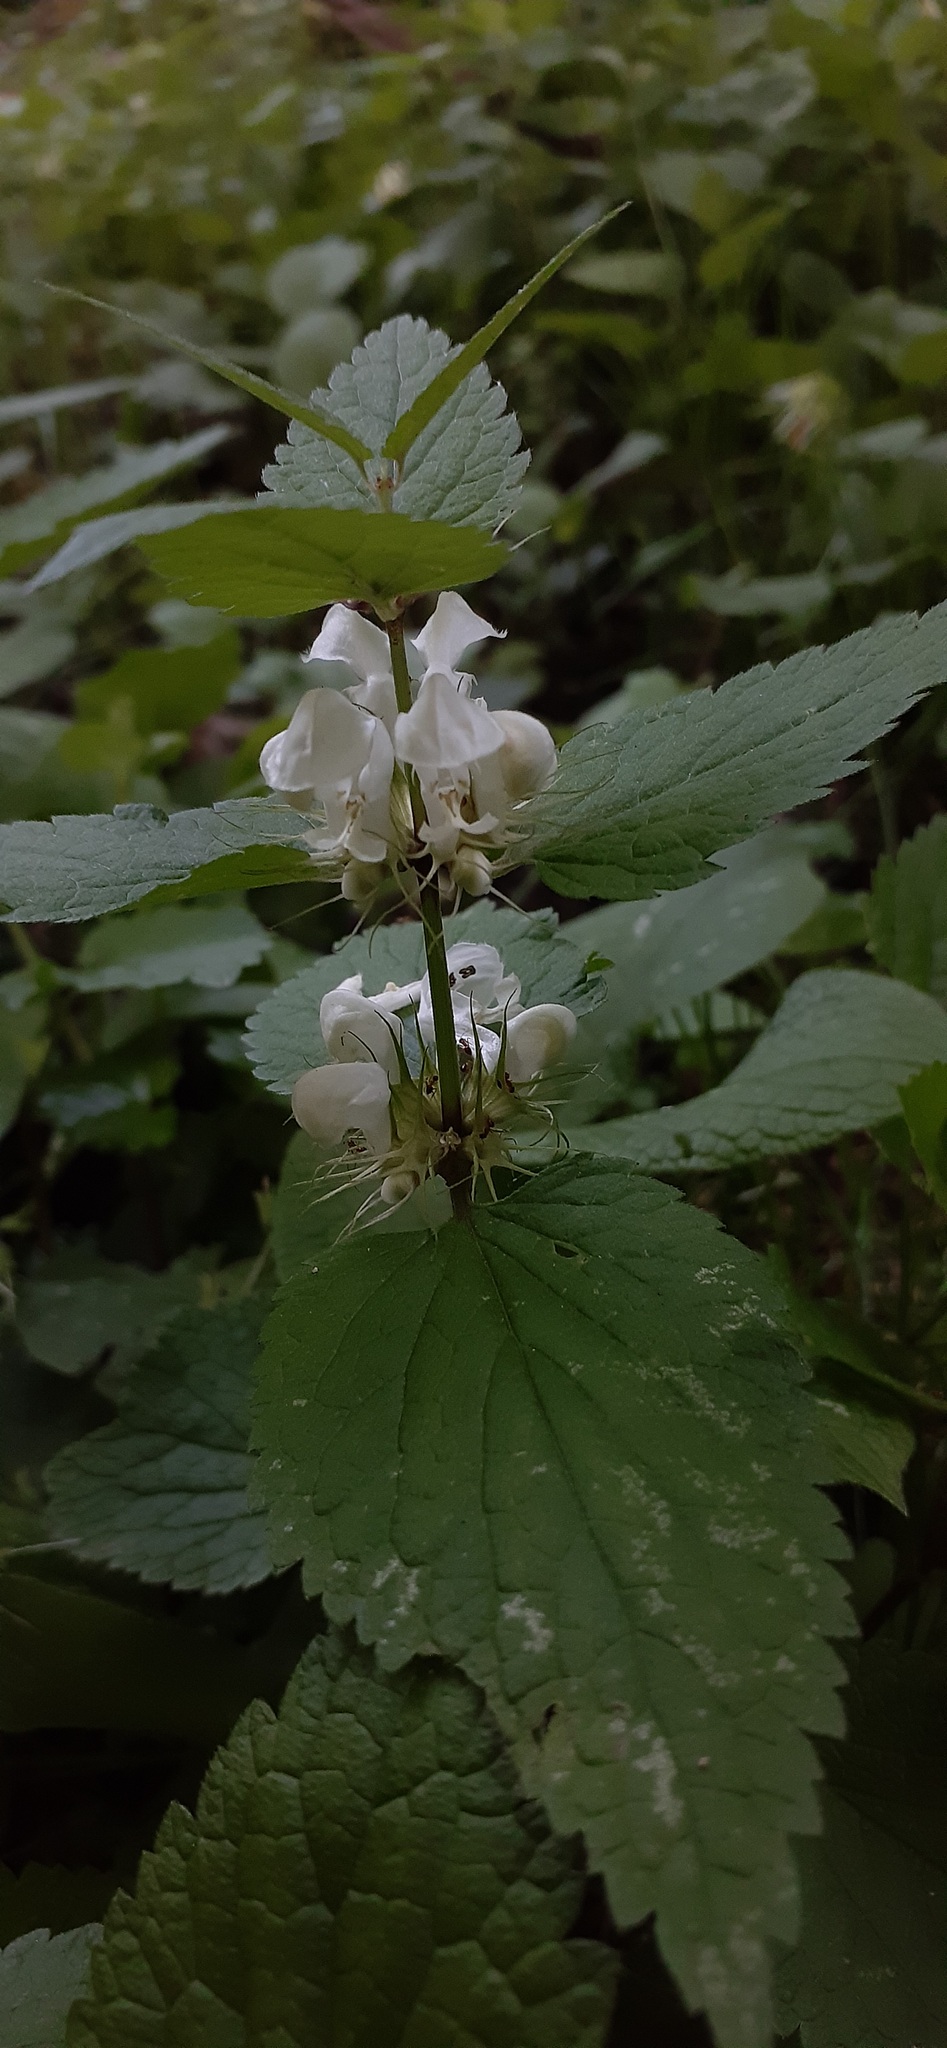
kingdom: Plantae
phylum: Tracheophyta
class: Magnoliopsida
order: Lamiales
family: Lamiaceae
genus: Lamium
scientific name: Lamium album
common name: White dead-nettle
